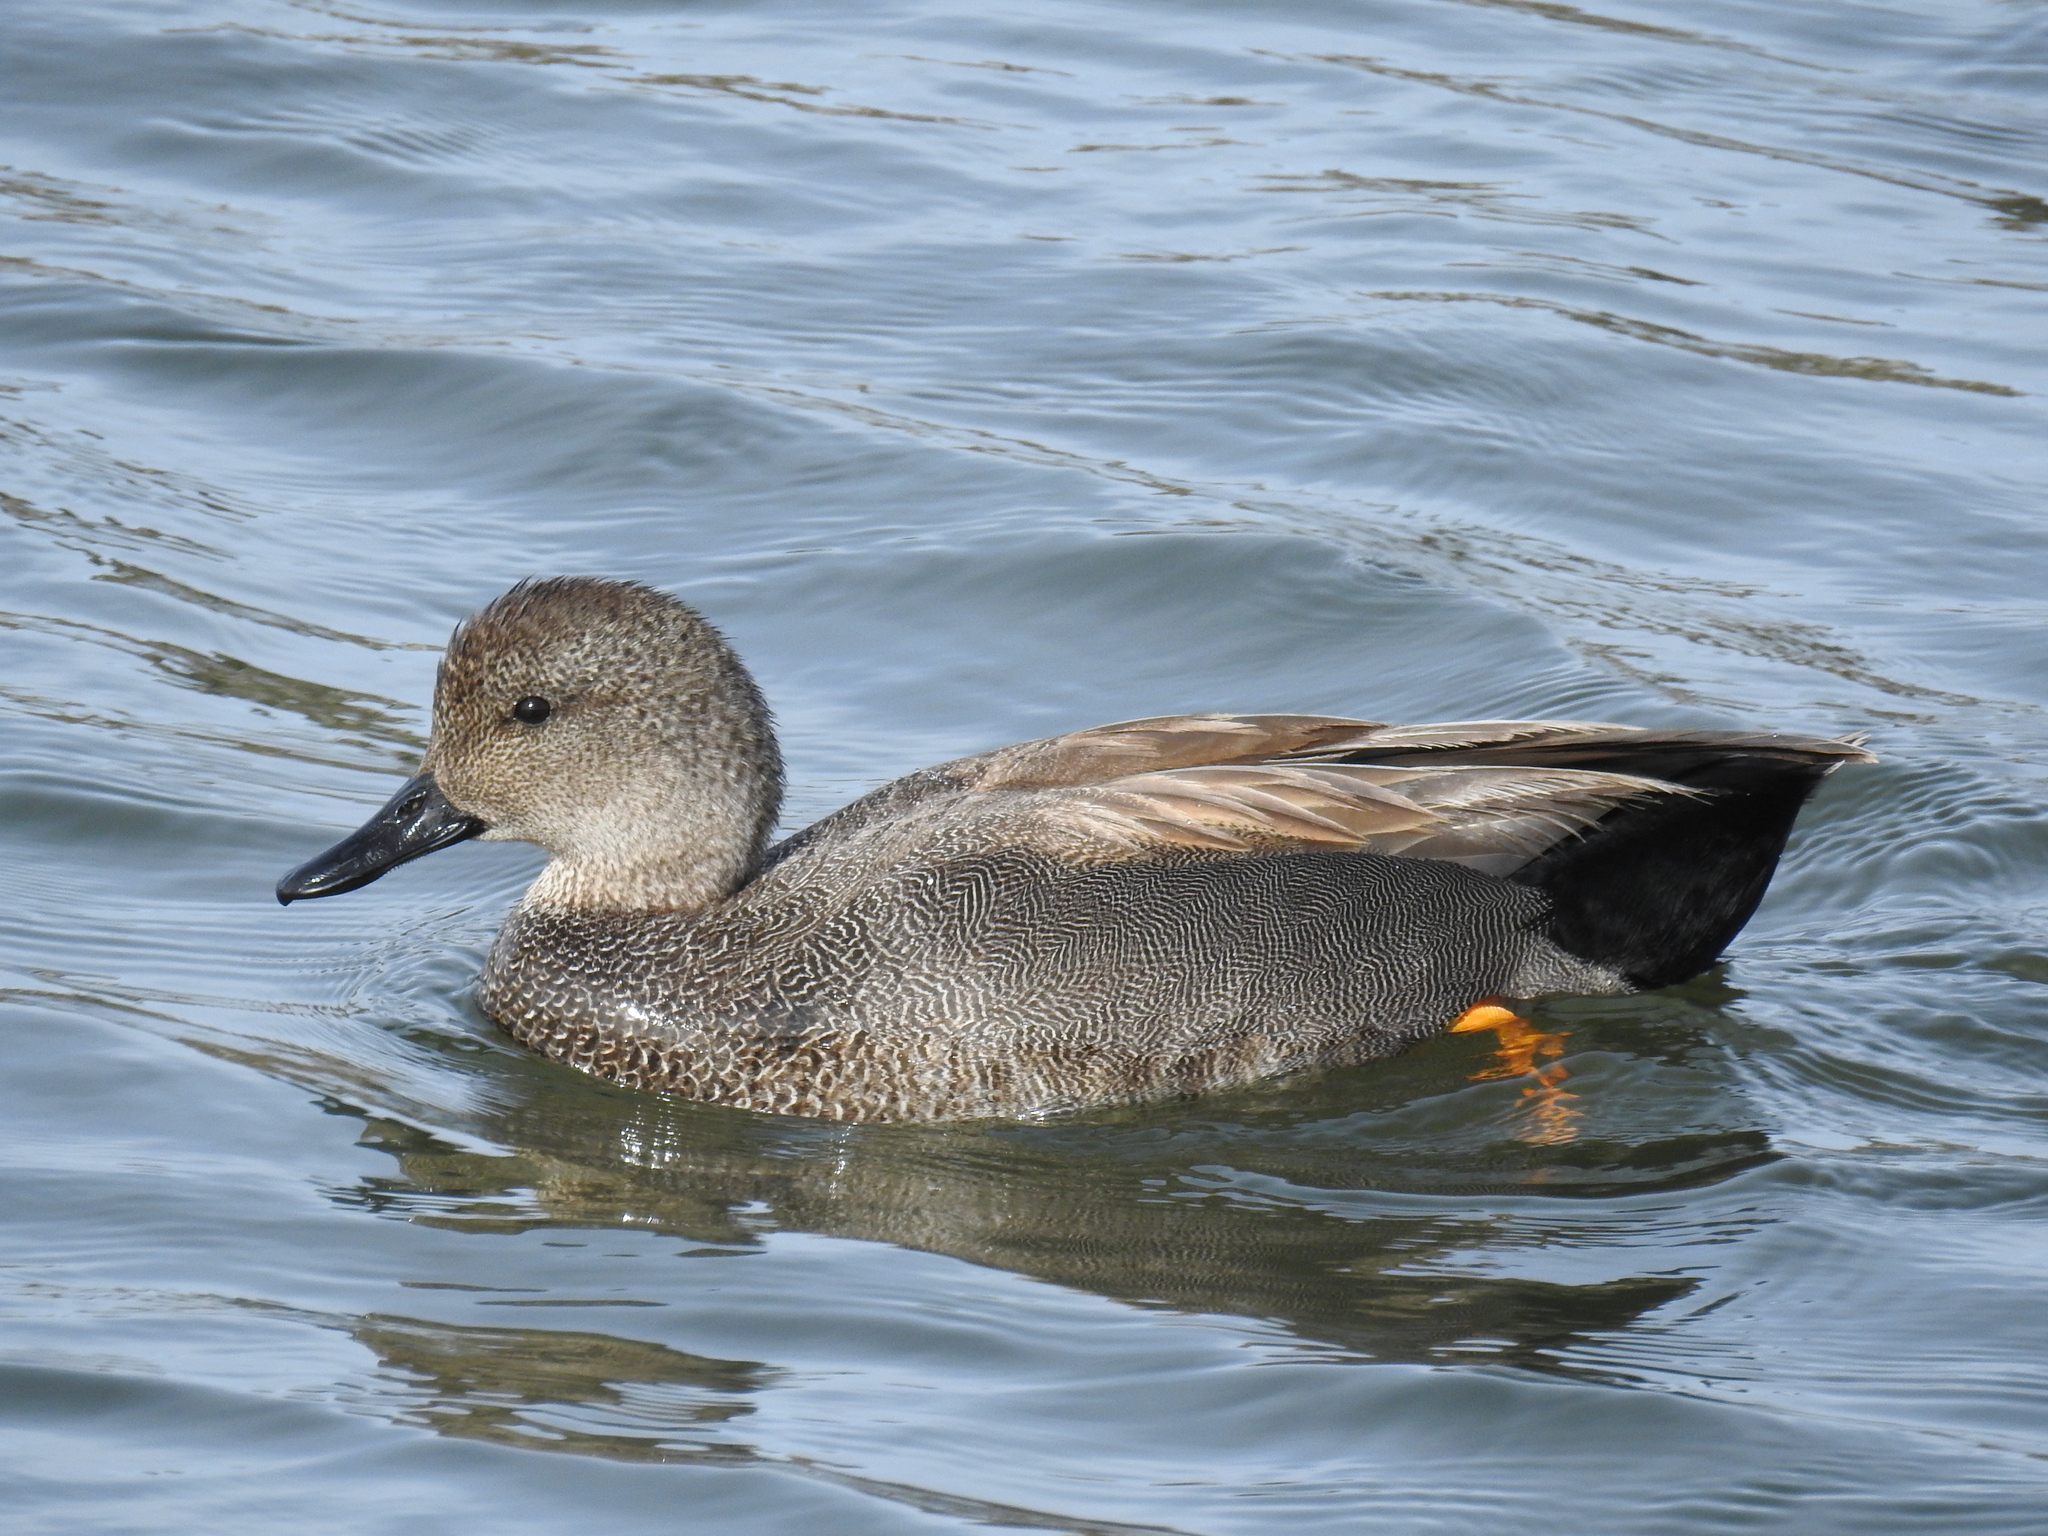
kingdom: Animalia
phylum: Chordata
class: Aves
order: Anseriformes
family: Anatidae
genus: Mareca
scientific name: Mareca strepera
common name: Gadwall
